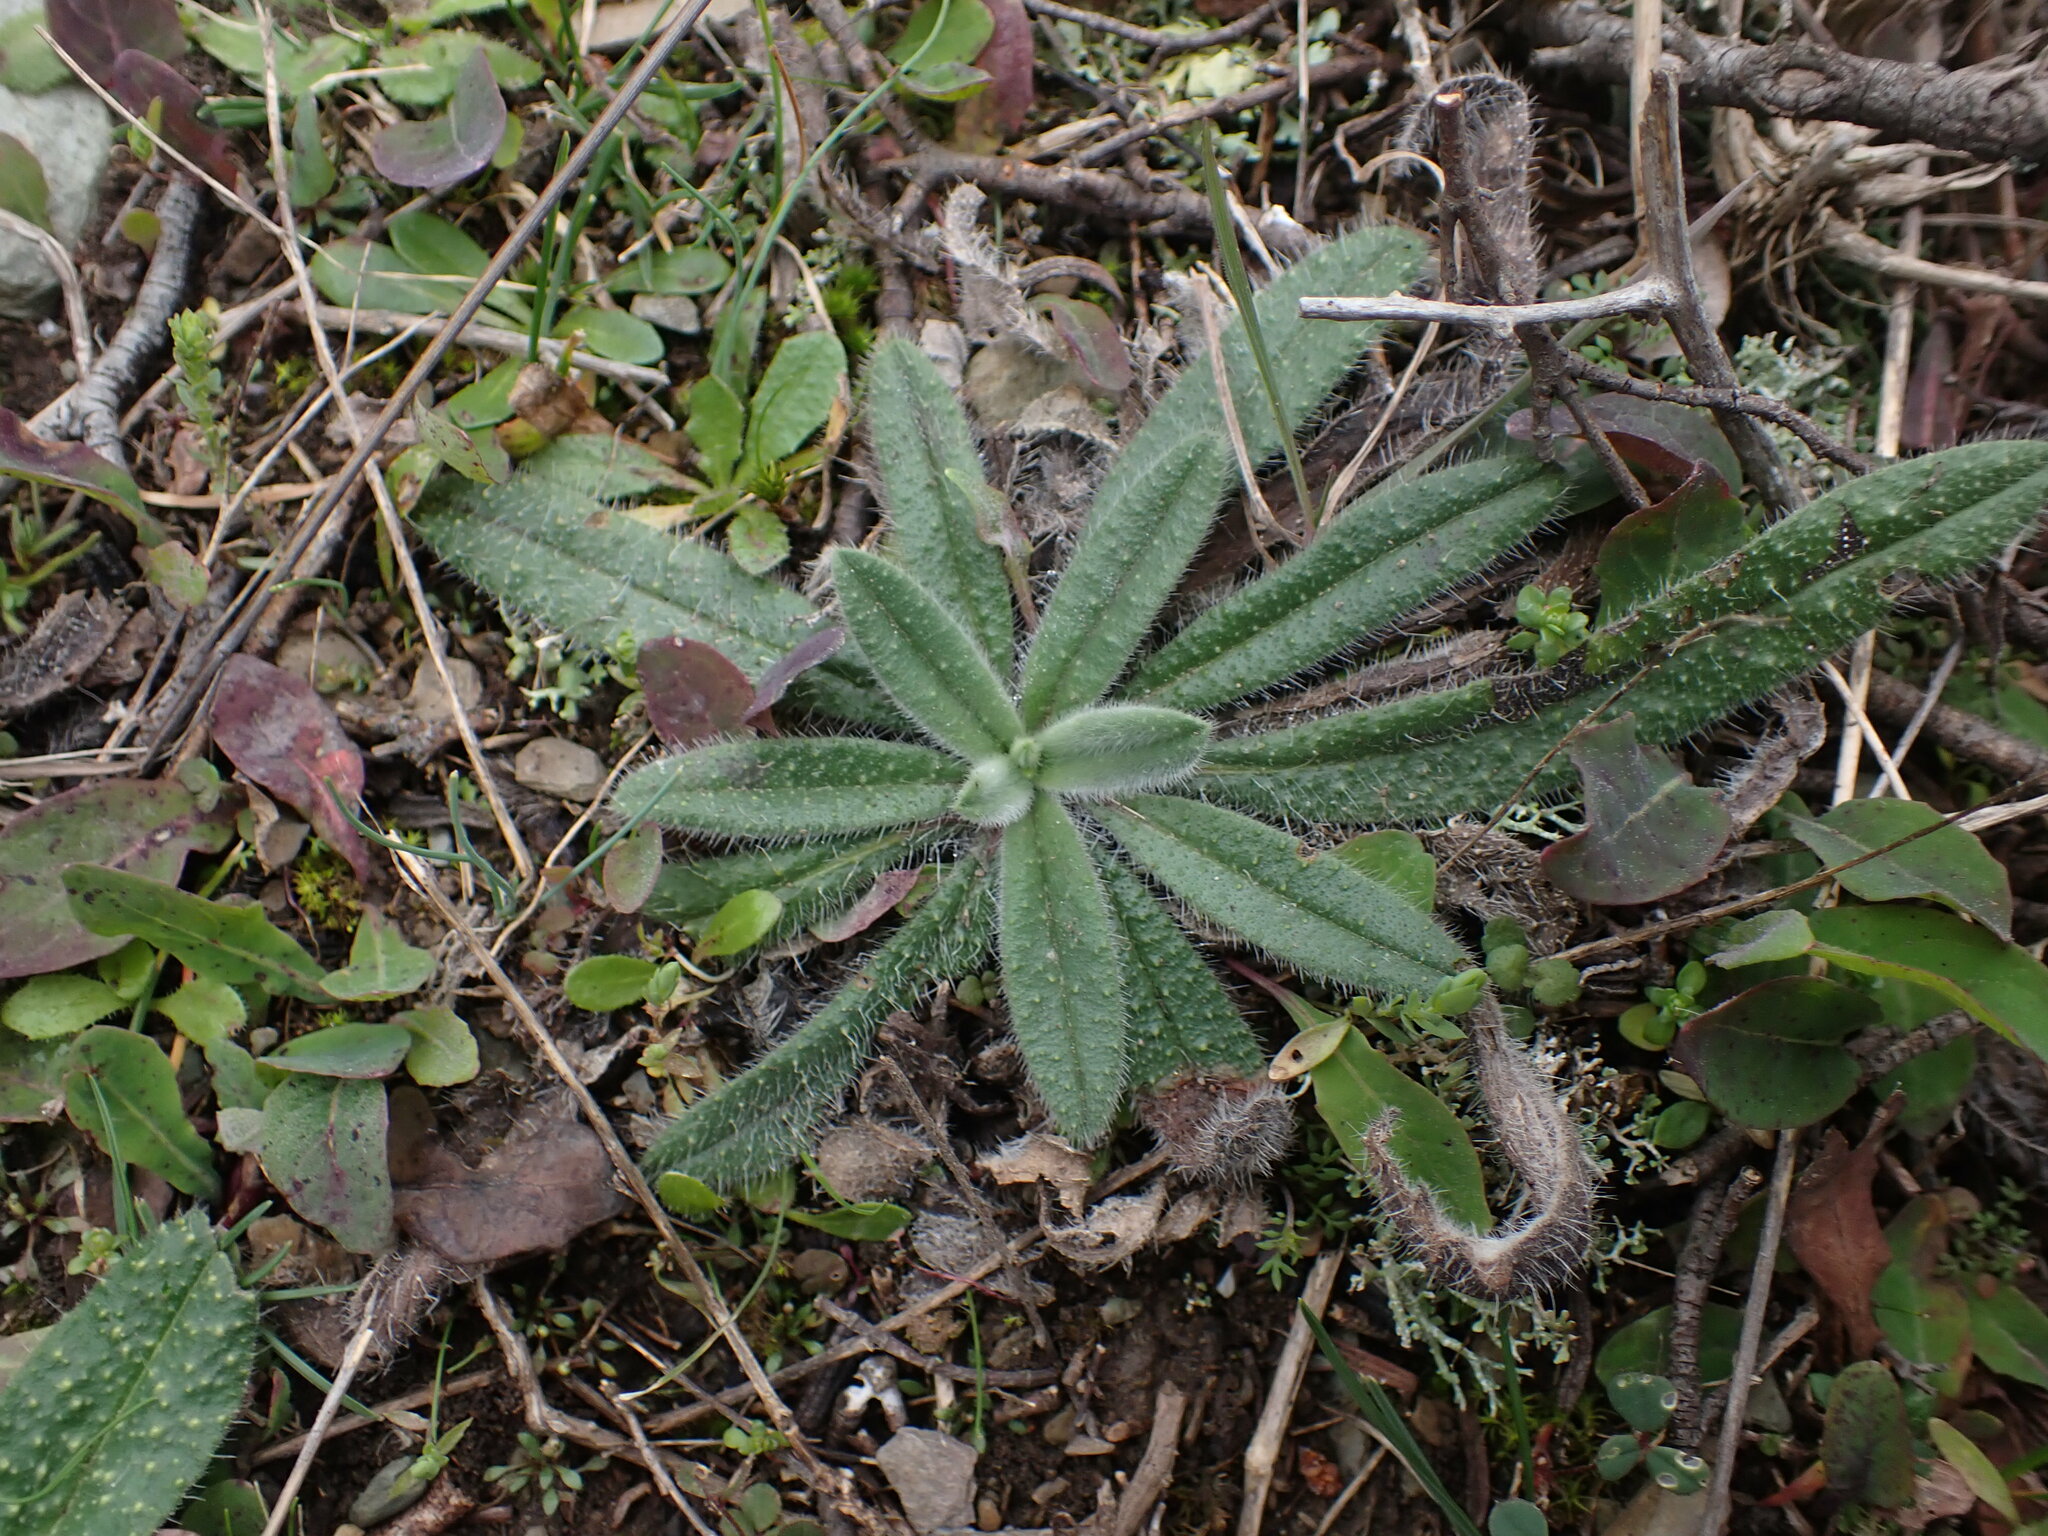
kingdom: Plantae
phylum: Tracheophyta
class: Magnoliopsida
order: Boraginales
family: Boraginaceae
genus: Echium
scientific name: Echium vulgare
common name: Common viper's bugloss
